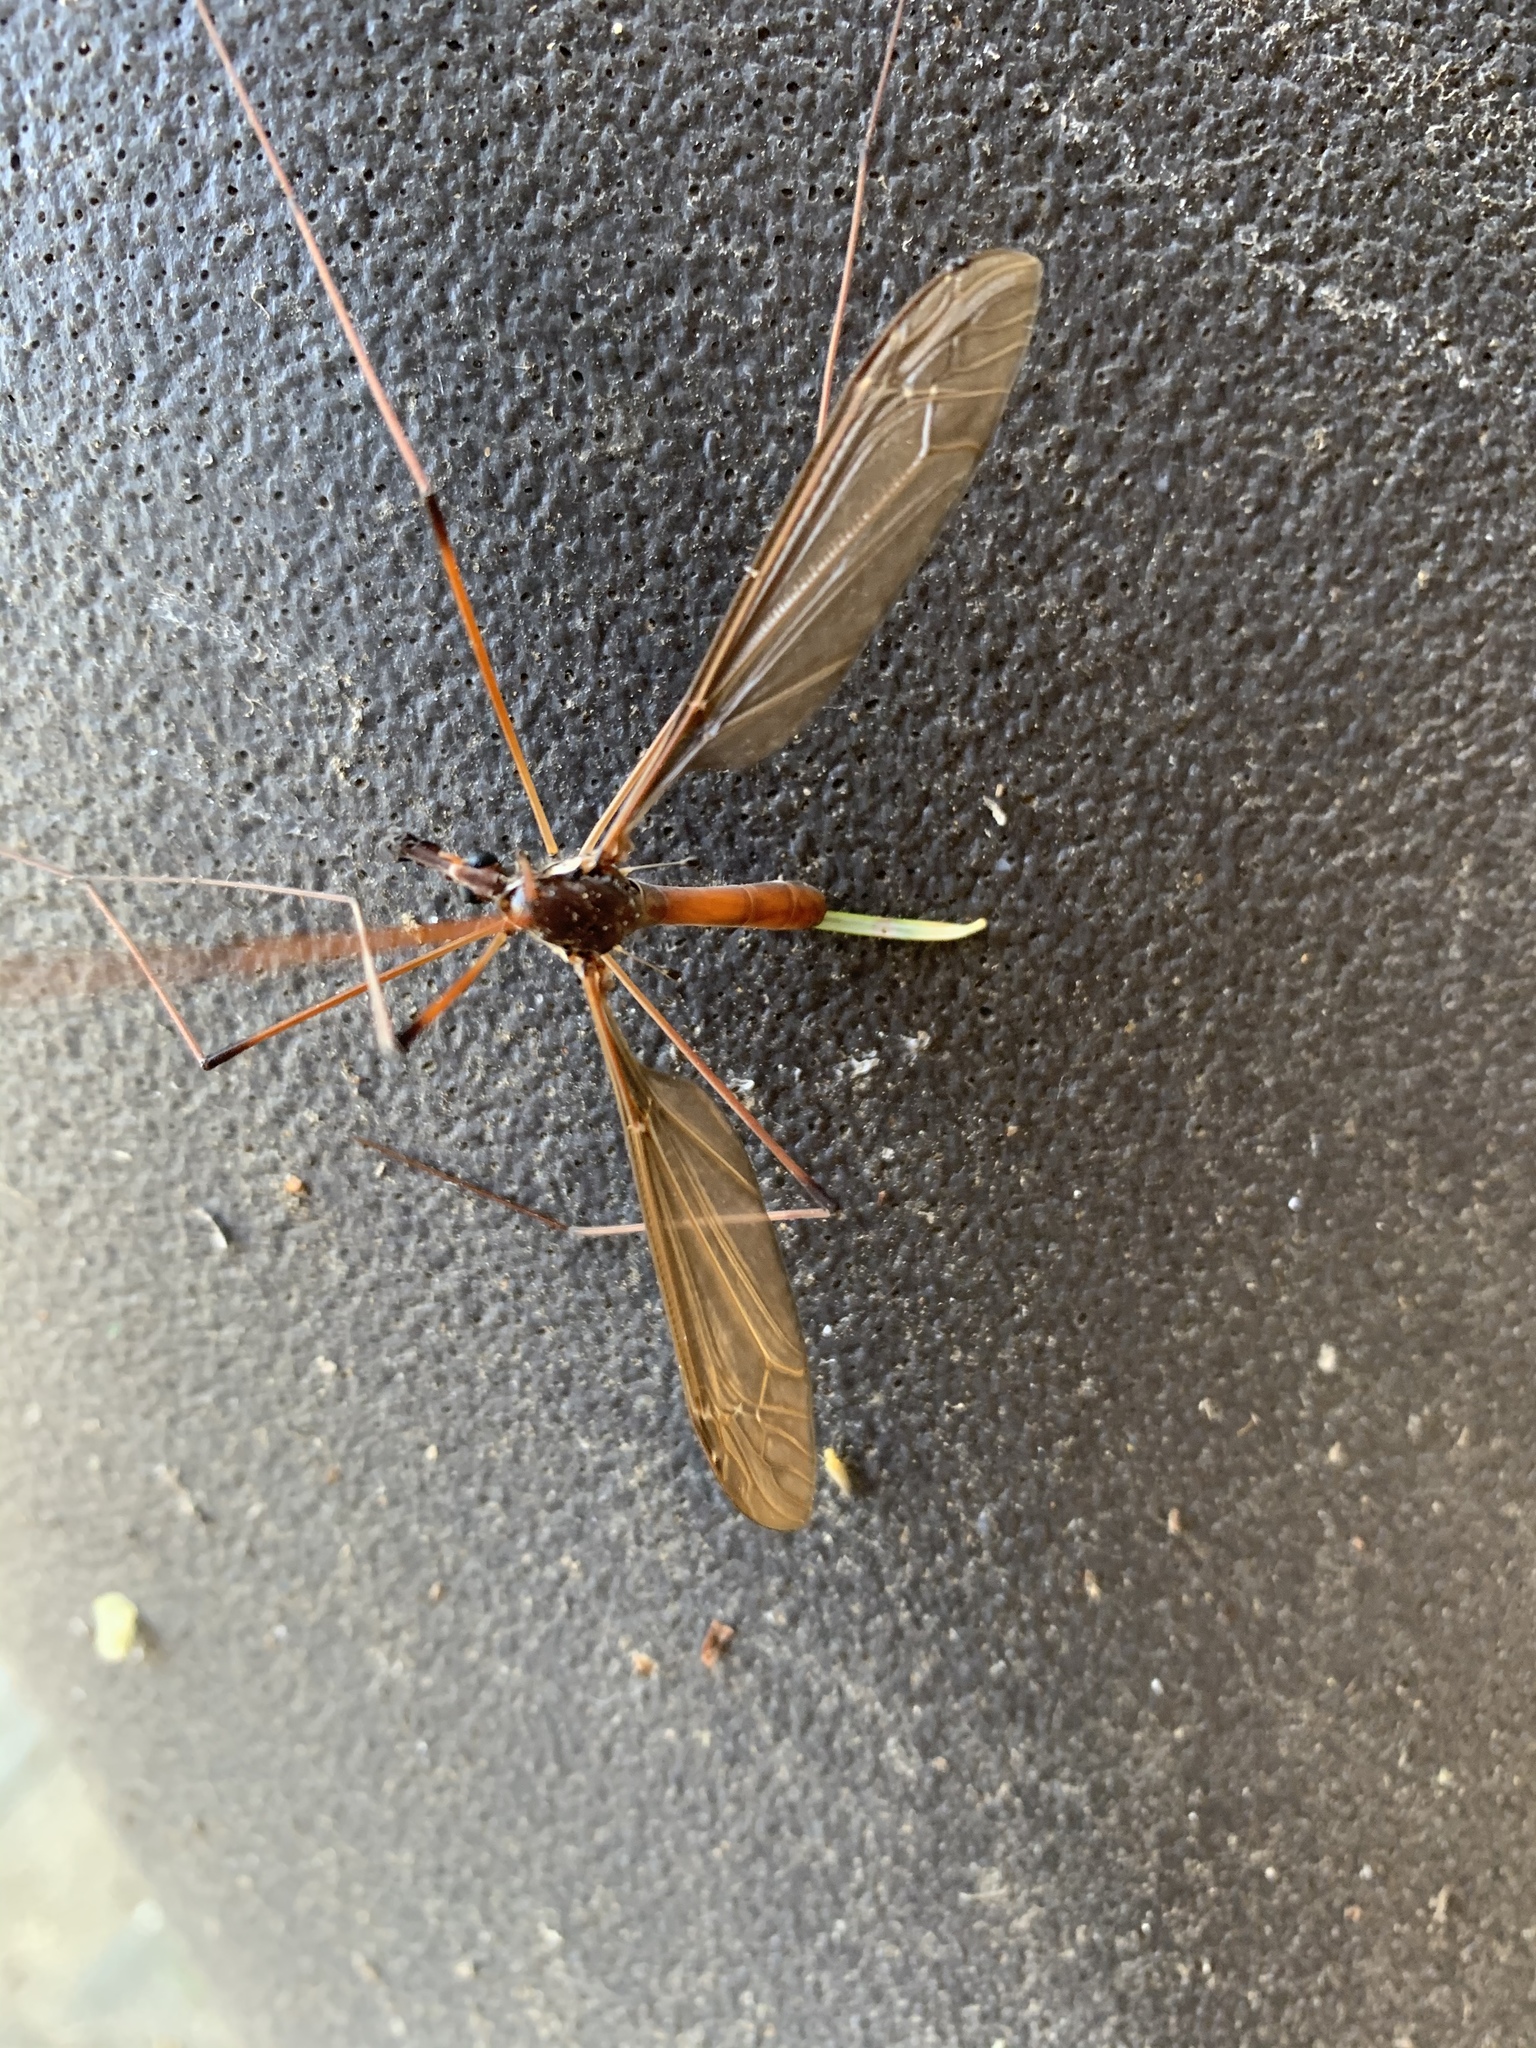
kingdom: Animalia
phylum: Arthropoda
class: Insecta
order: Diptera
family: Tipulidae
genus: Holorusia
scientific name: Holorusia hespera
